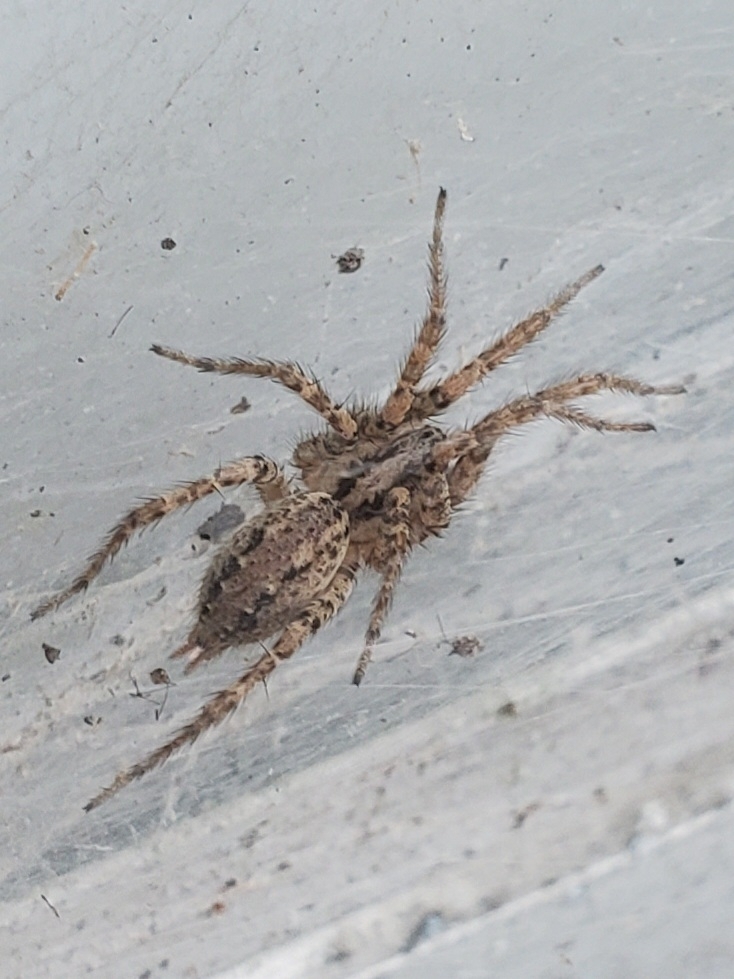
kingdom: Animalia
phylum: Arthropoda
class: Arachnida
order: Araneae
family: Agelenidae
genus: Barronopsis
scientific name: Barronopsis texana
